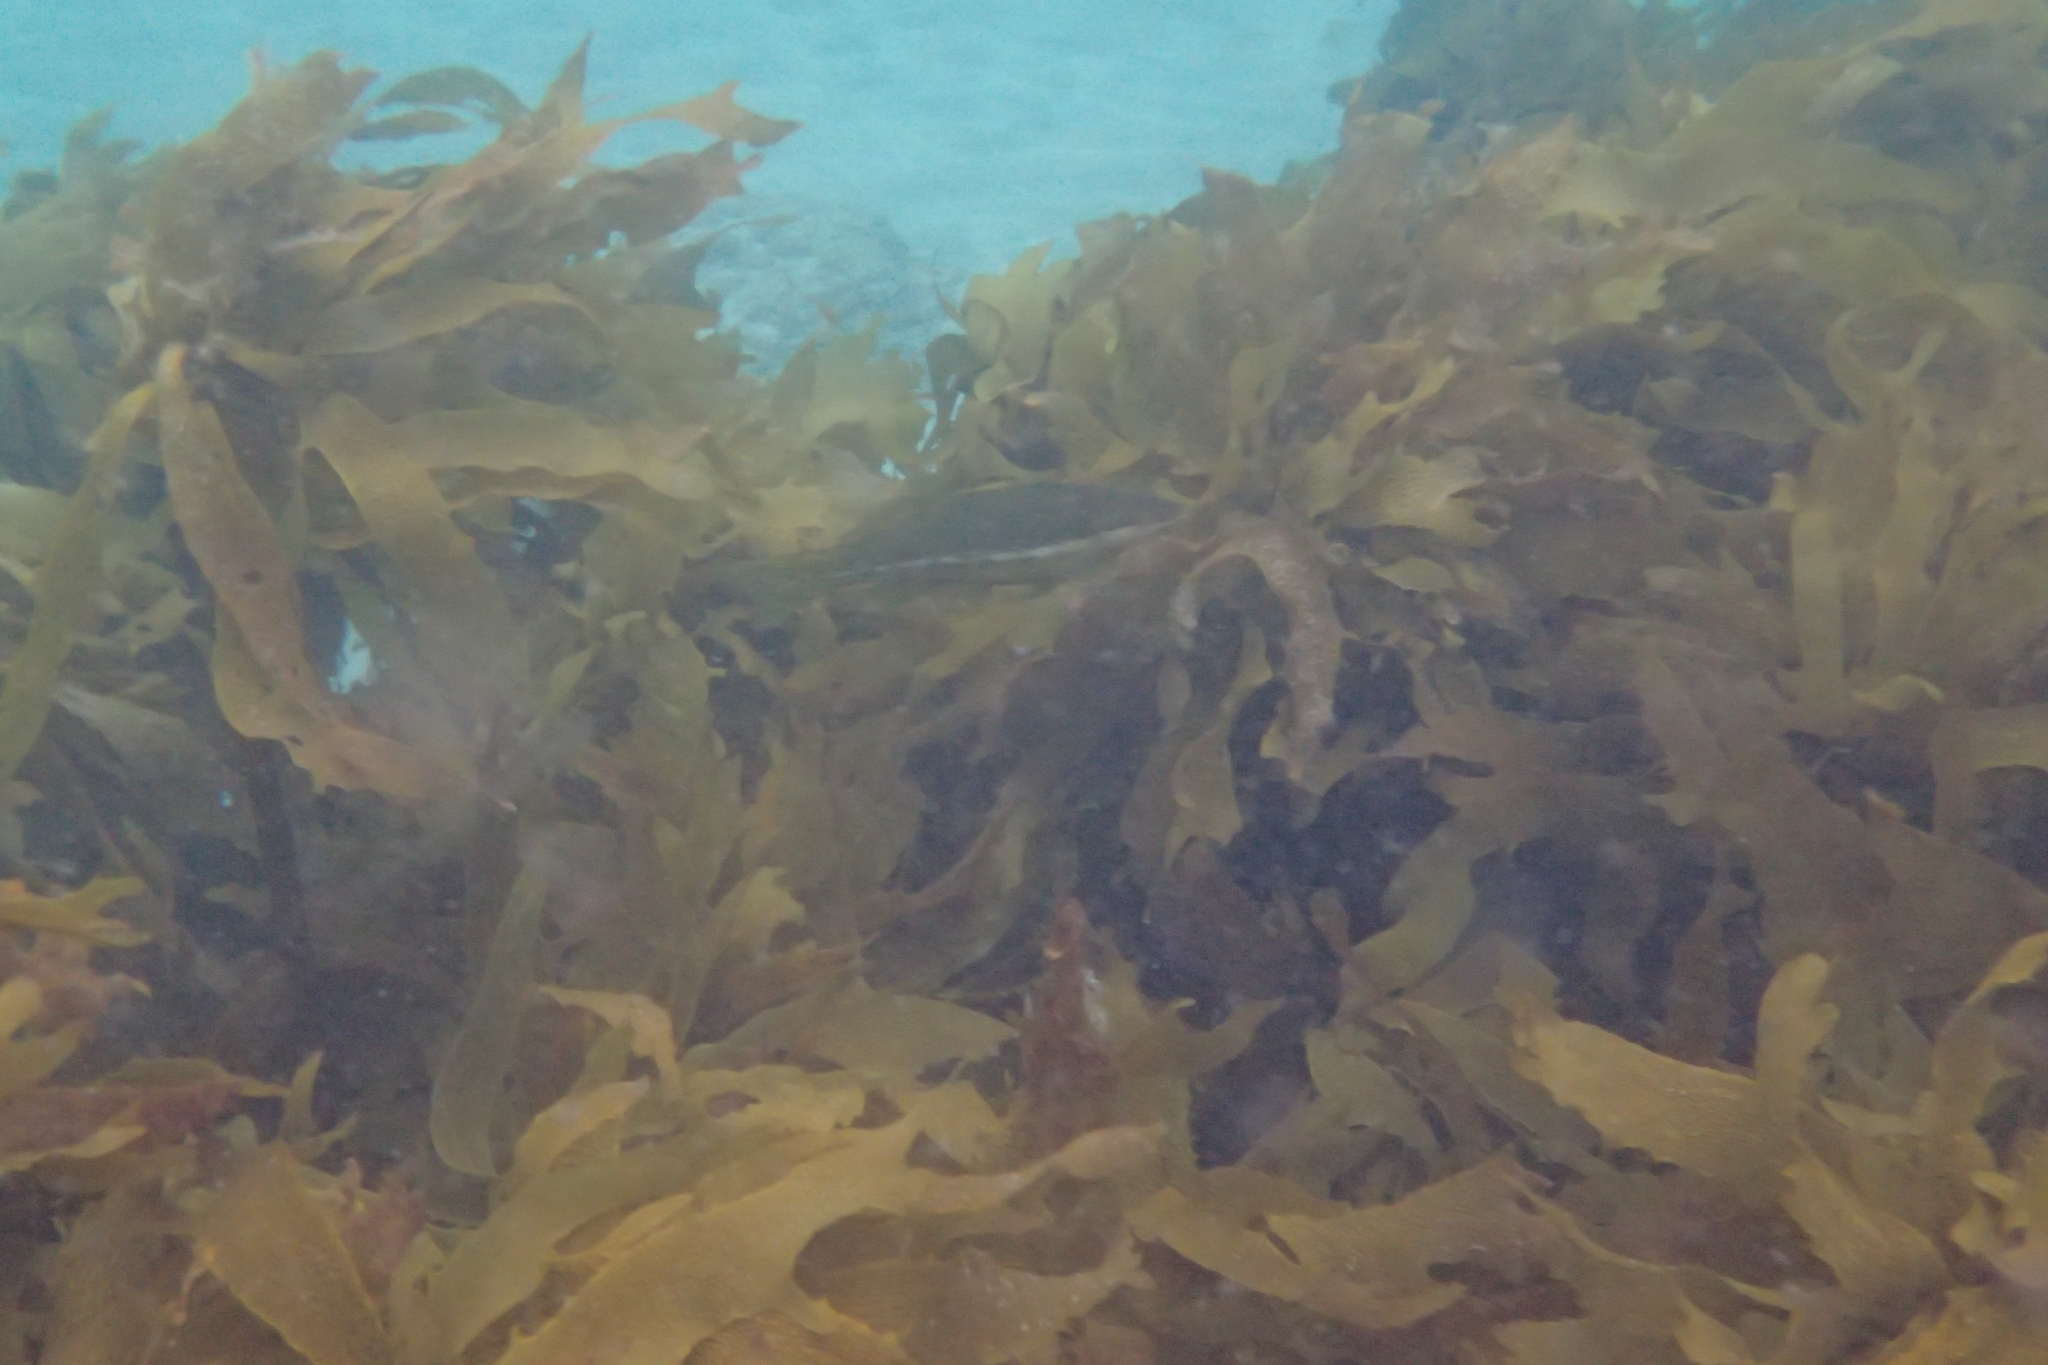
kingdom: Animalia
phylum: Chordata
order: Perciformes
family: Odacidae
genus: Odax
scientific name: Odax pullus
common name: Butterfish
